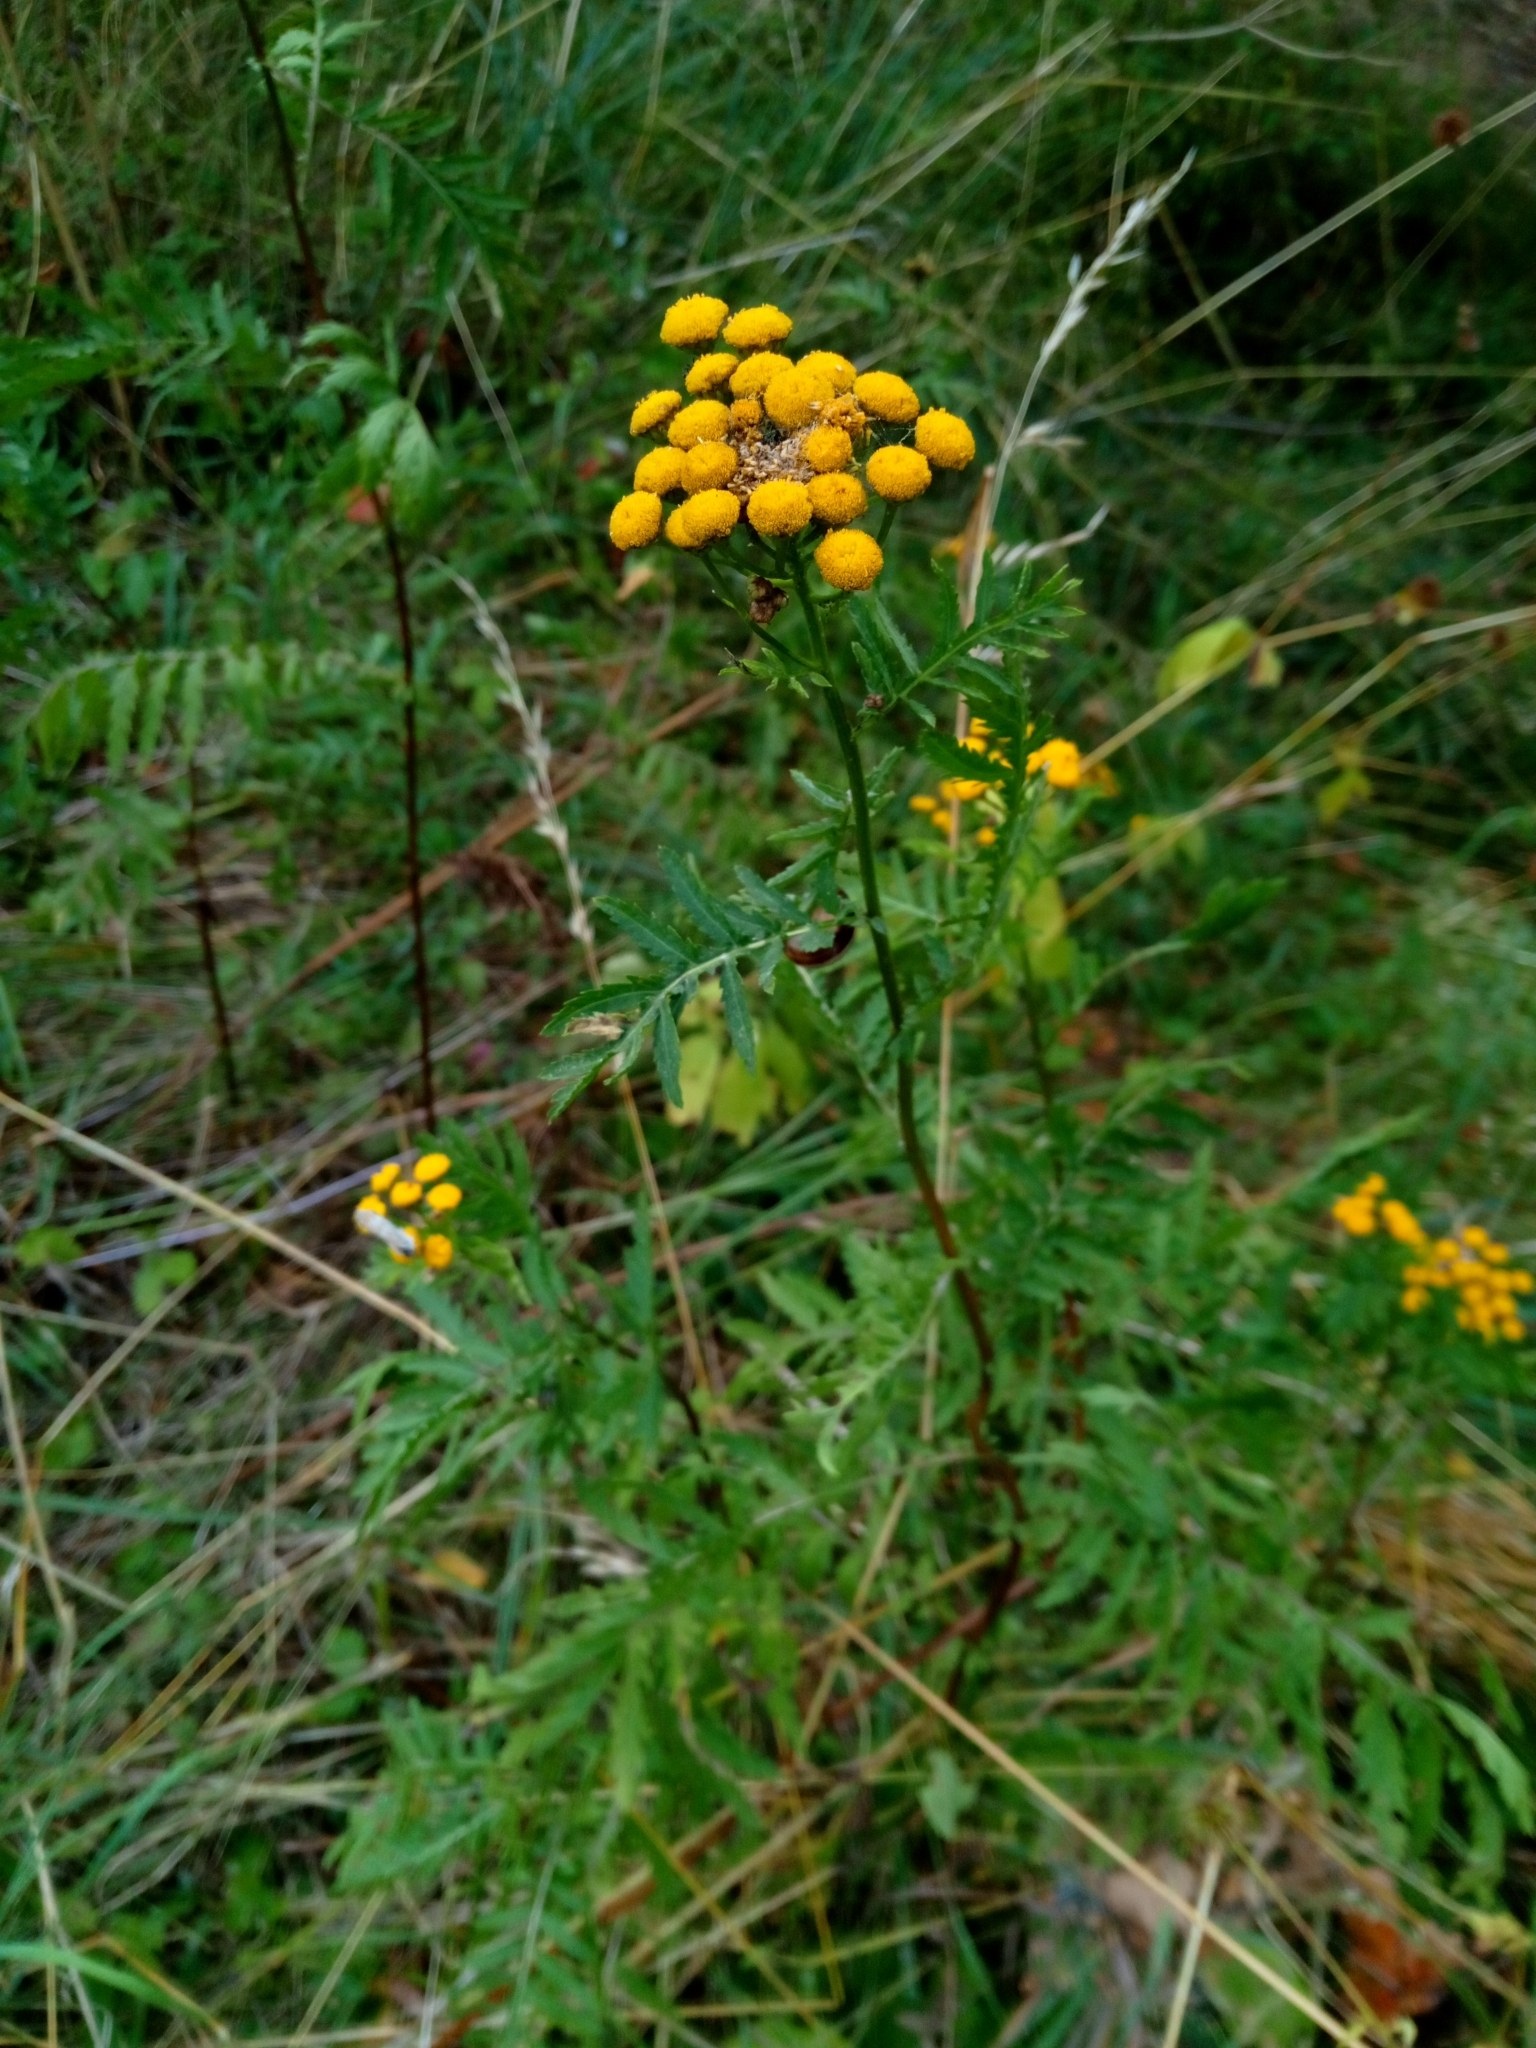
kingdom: Plantae
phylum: Tracheophyta
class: Magnoliopsida
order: Asterales
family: Asteraceae
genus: Tanacetum
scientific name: Tanacetum vulgare
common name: Common tansy
